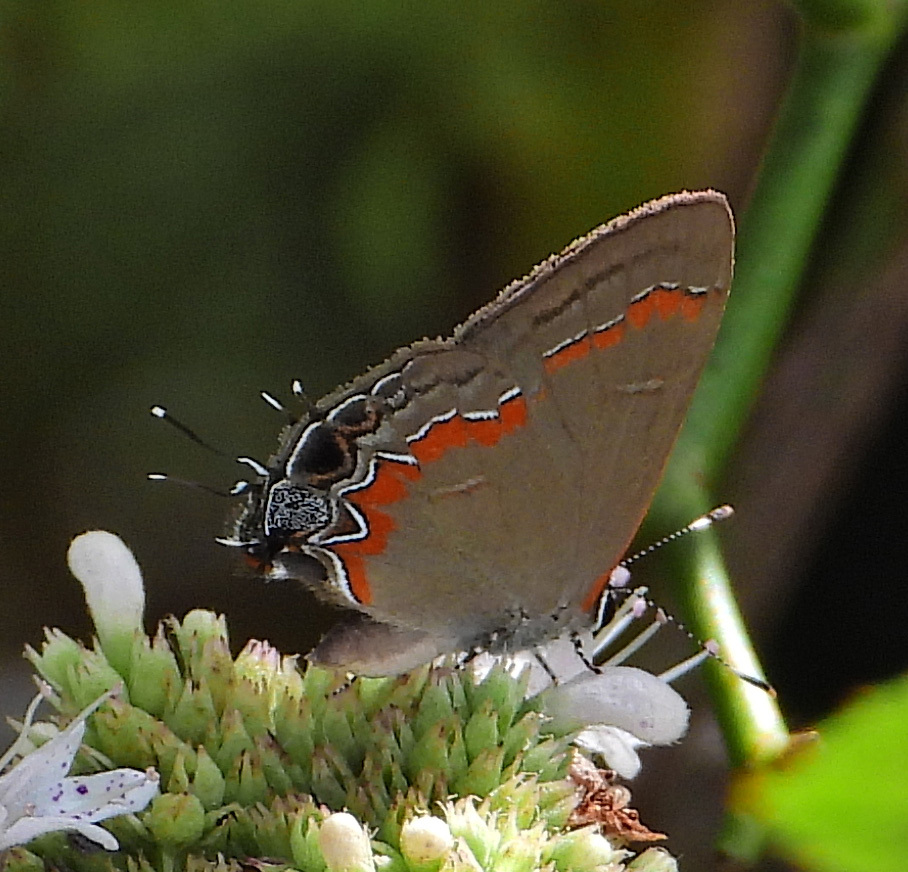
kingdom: Animalia
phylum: Arthropoda
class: Insecta
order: Lepidoptera
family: Lycaenidae
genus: Calycopis
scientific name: Calycopis cecrops
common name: Red-banded hairstreak
